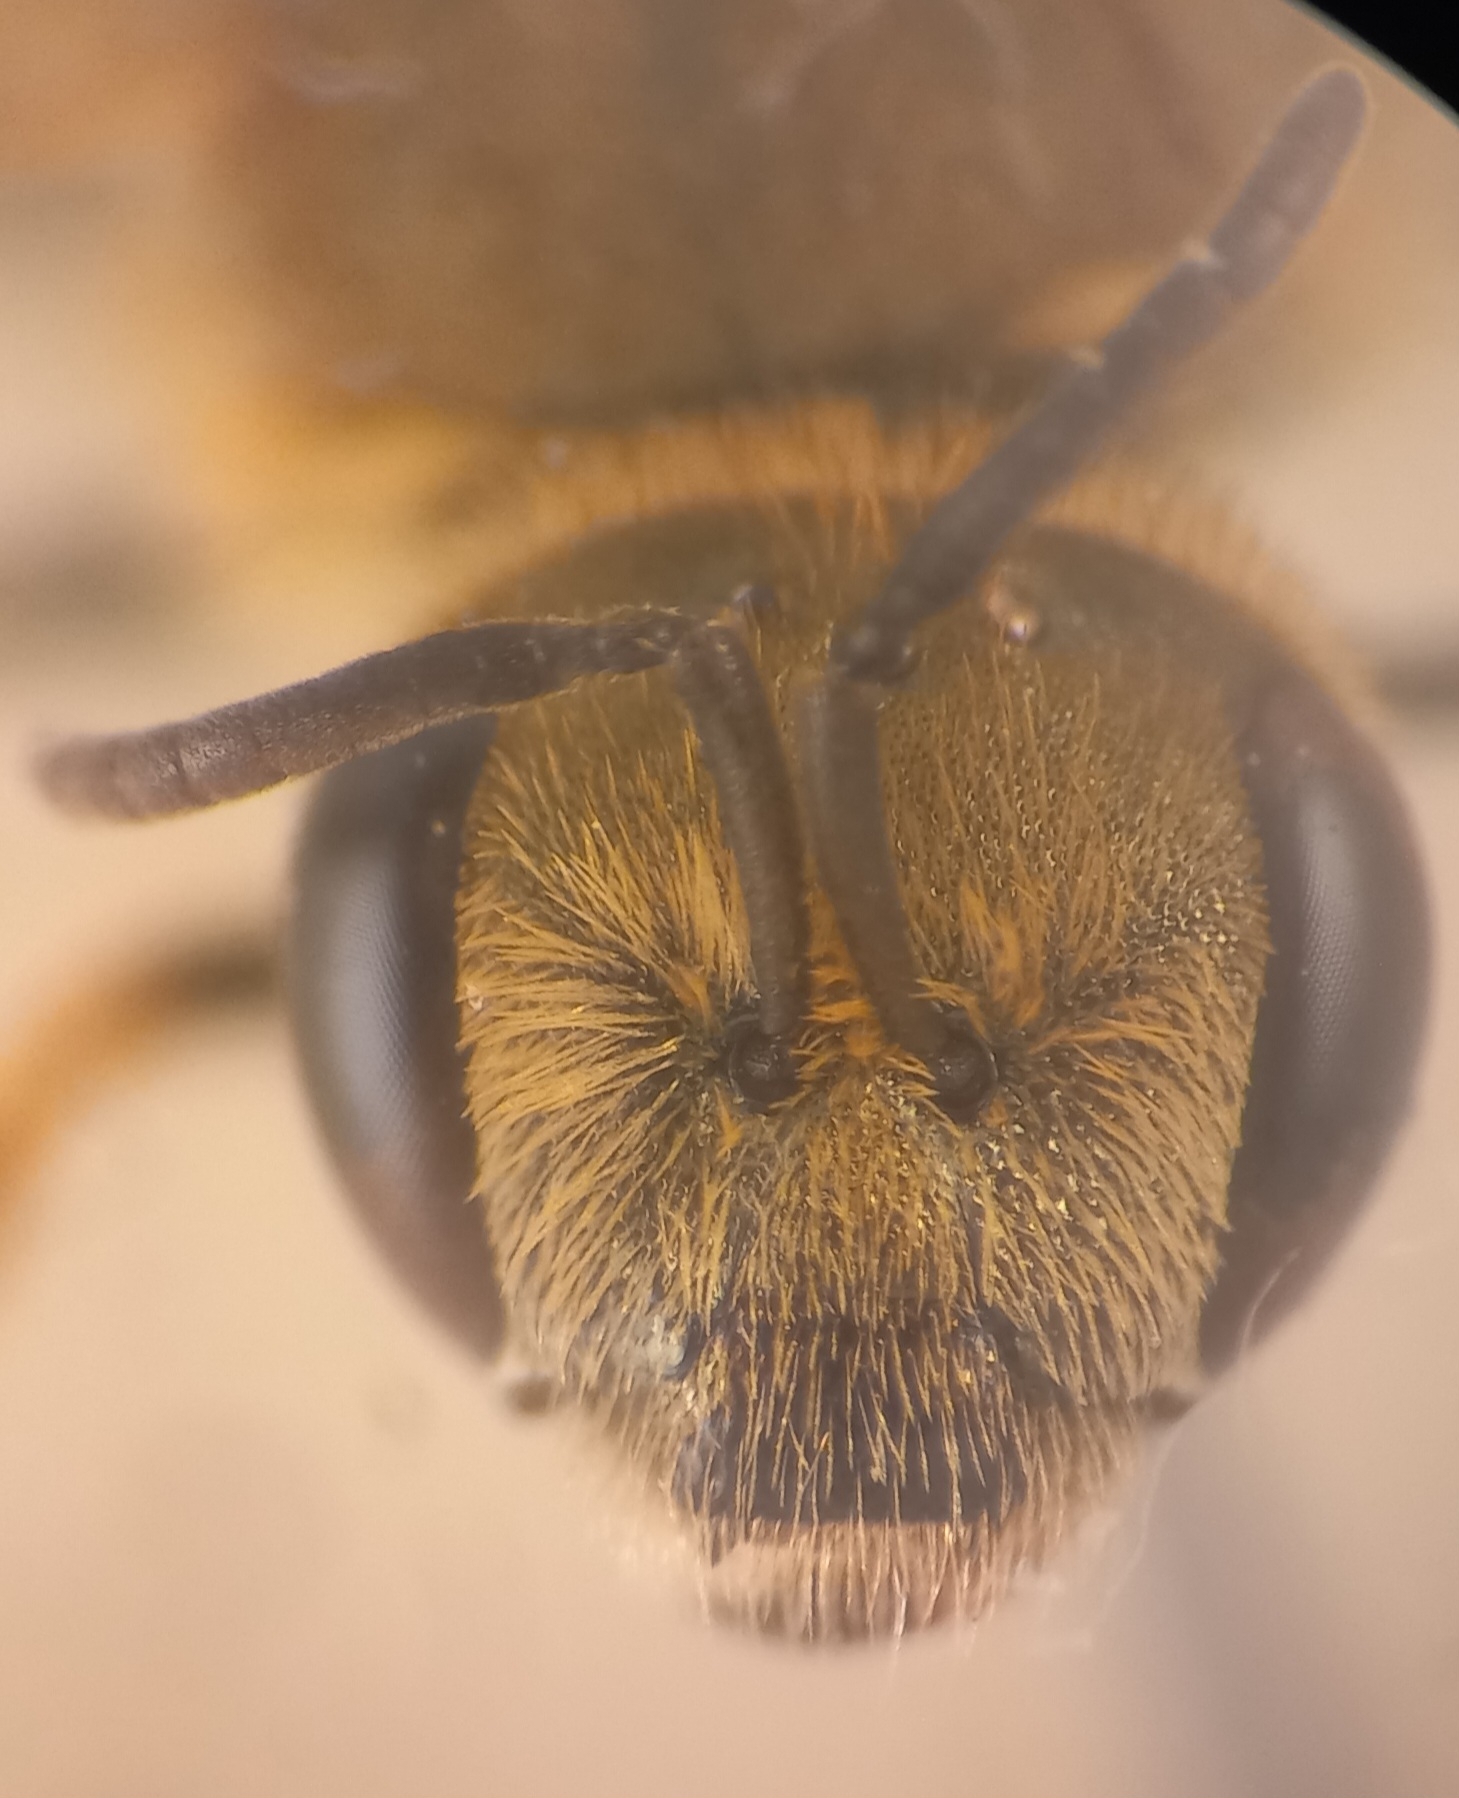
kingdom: Animalia
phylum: Arthropoda
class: Insecta
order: Hymenoptera
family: Halictidae
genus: Halictus
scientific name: Halictus subauratus
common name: Golden furrow bee
